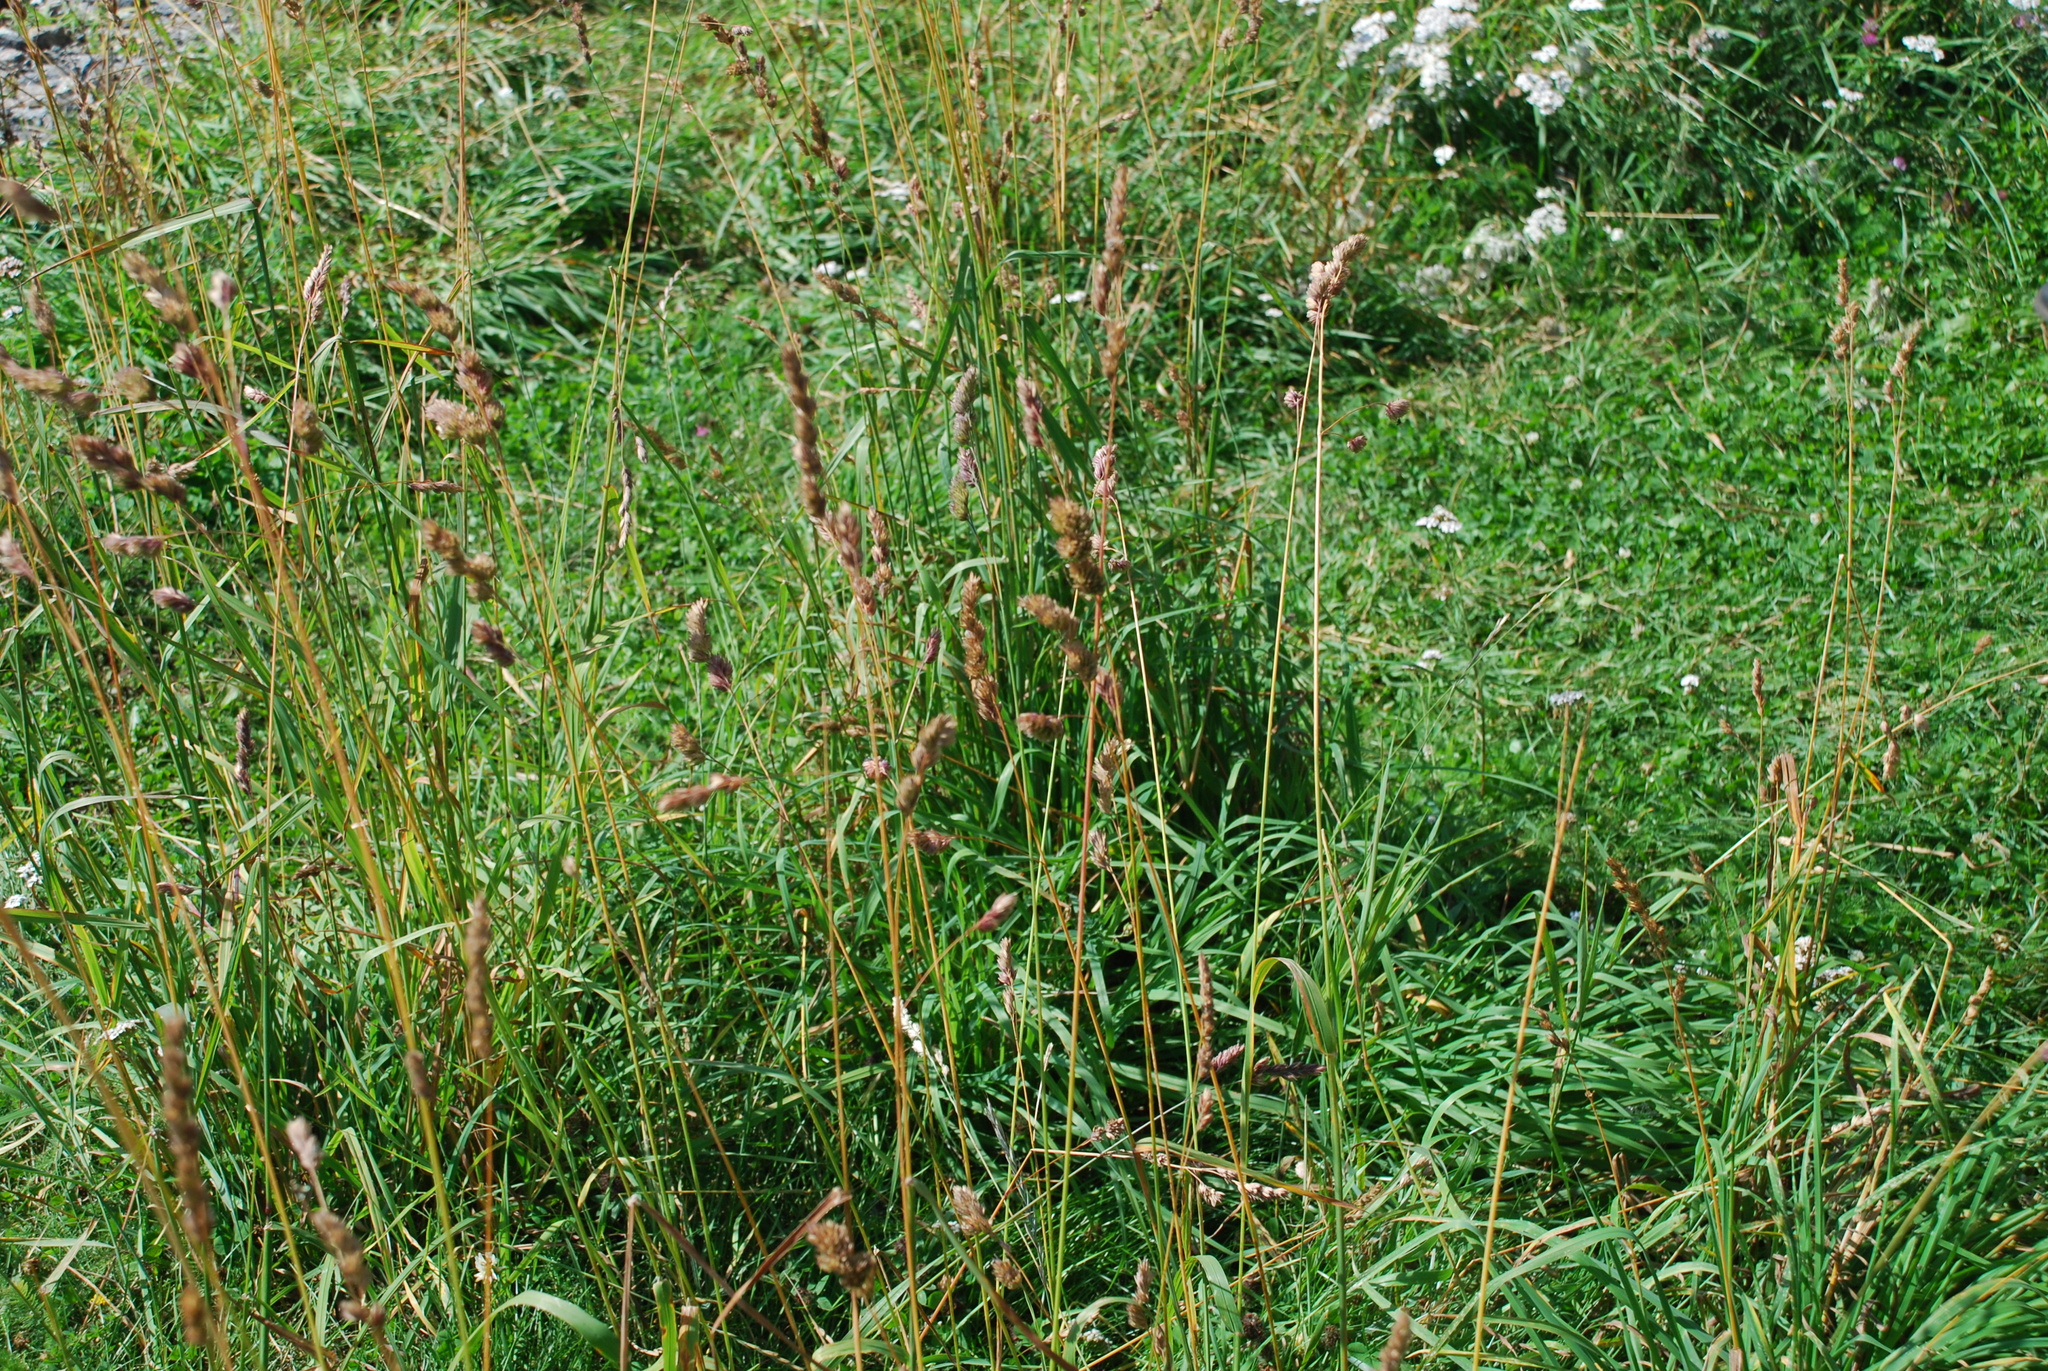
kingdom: Plantae
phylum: Tracheophyta
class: Liliopsida
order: Poales
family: Poaceae
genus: Dactylis
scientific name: Dactylis glomerata
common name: Orchardgrass
